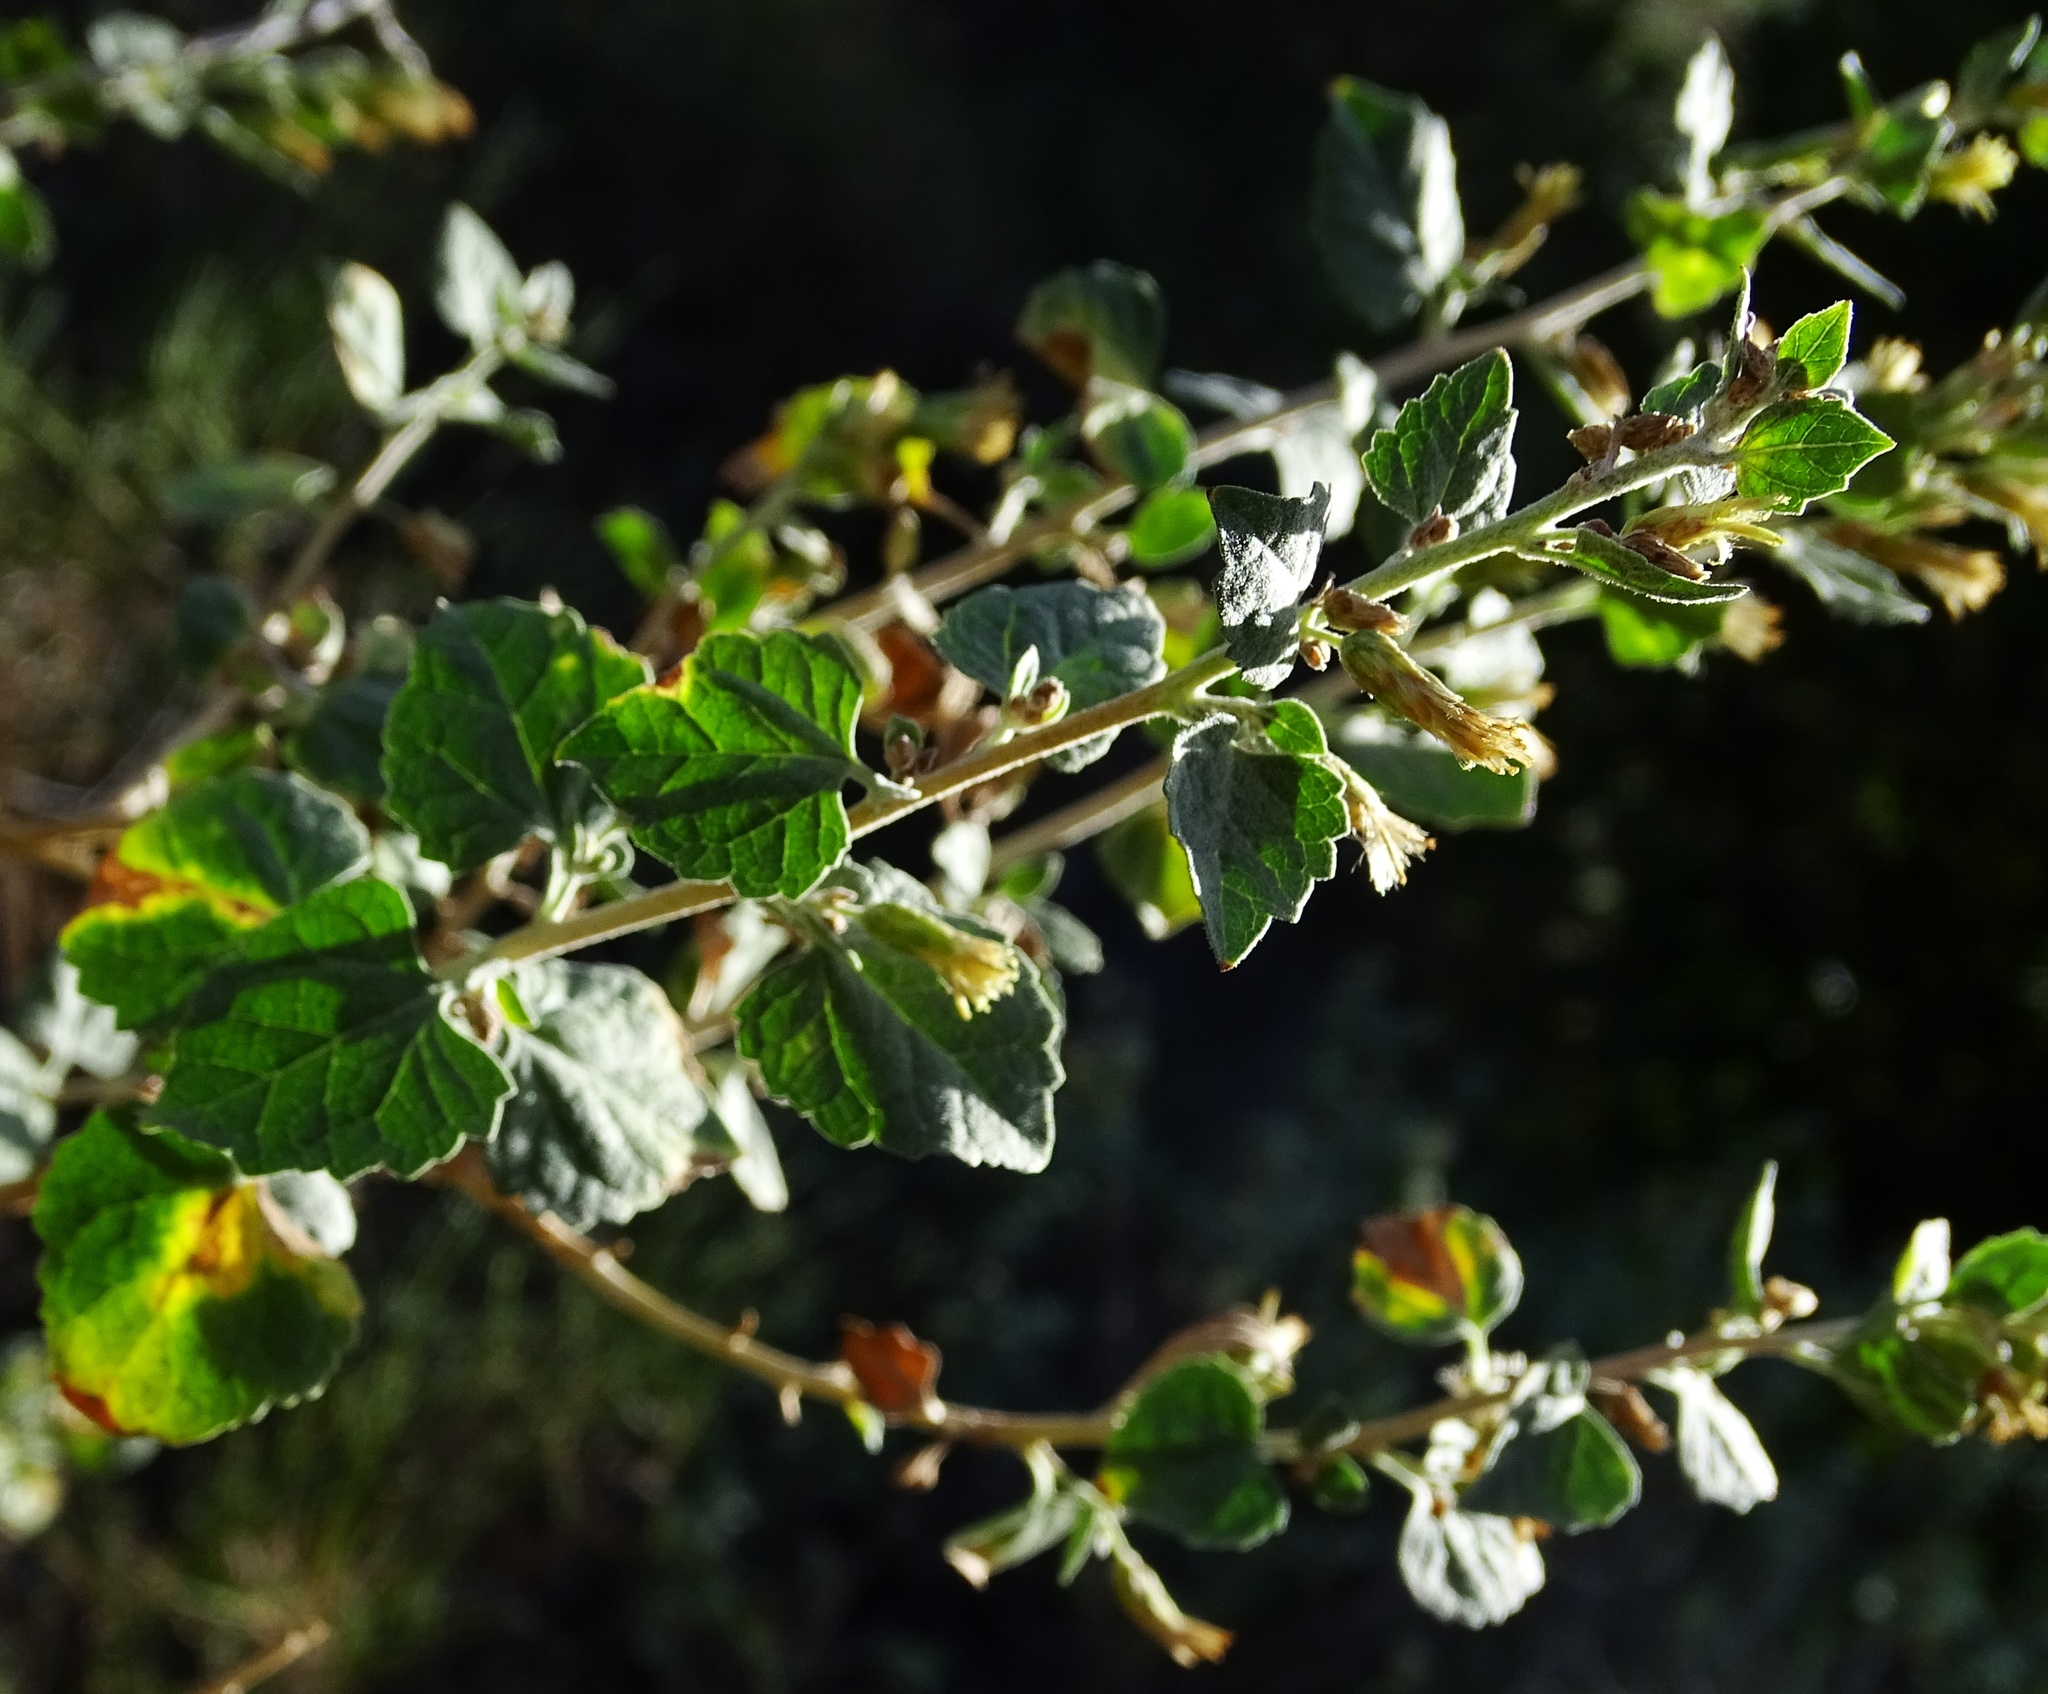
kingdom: Plantae
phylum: Tracheophyta
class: Magnoliopsida
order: Asterales
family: Asteraceae
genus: Brickellia
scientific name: Brickellia californica
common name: California brickellbush
